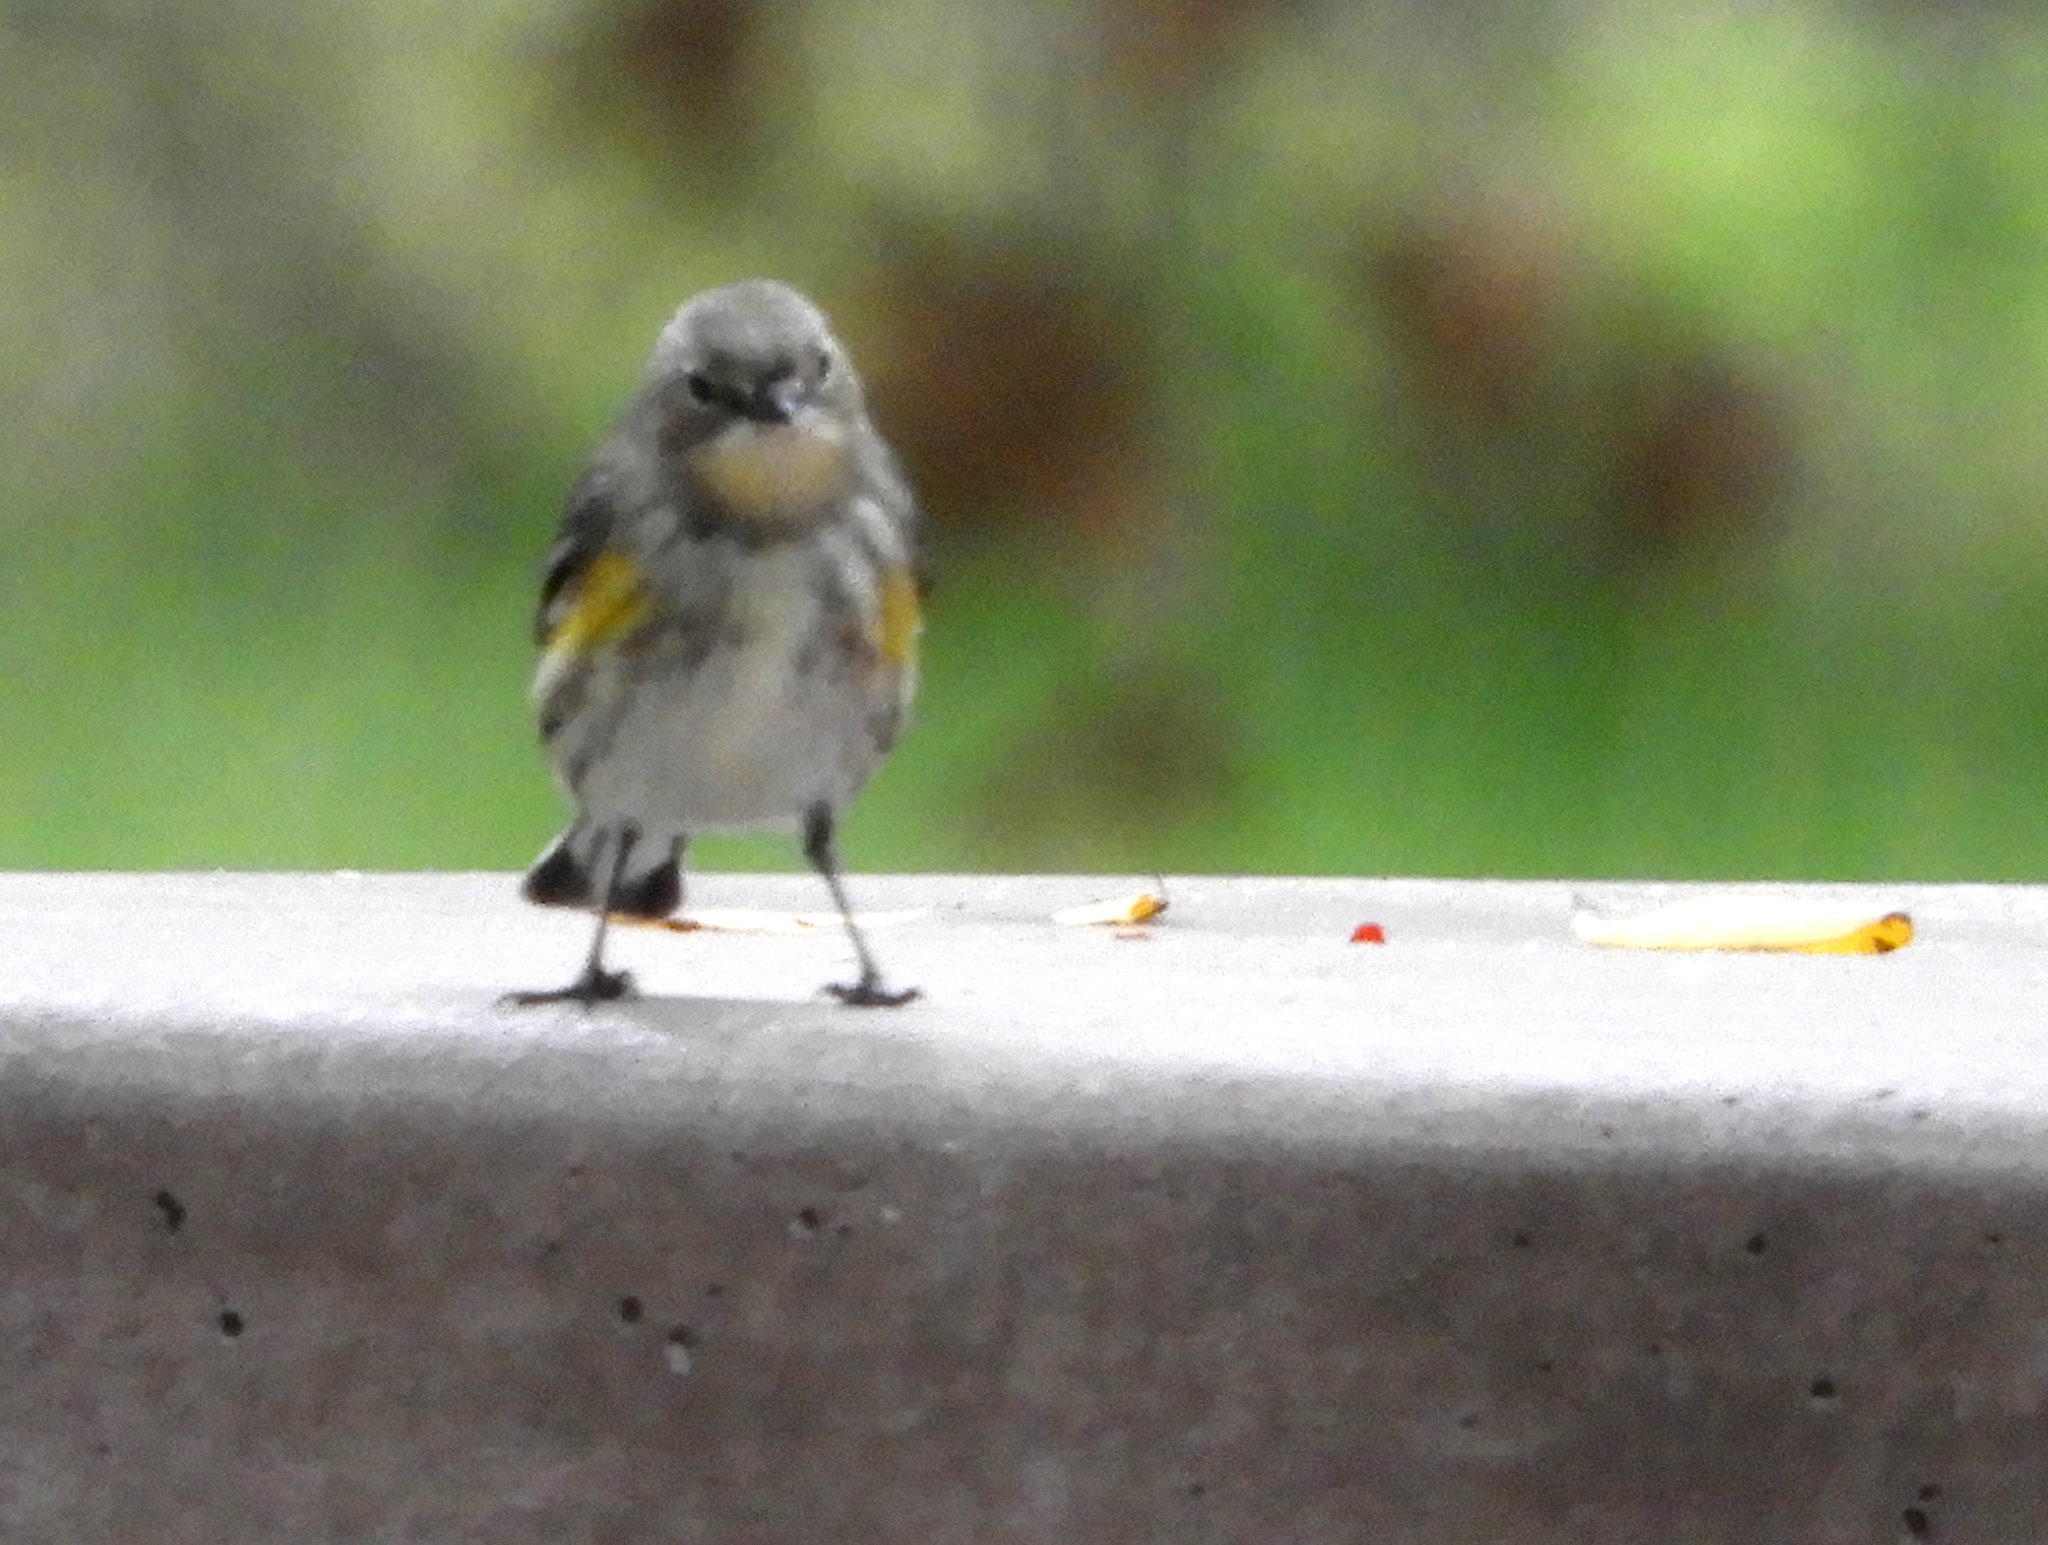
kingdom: Animalia
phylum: Chordata
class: Aves
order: Passeriformes
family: Parulidae
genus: Setophaga
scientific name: Setophaga auduboni
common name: Audubon's warbler
